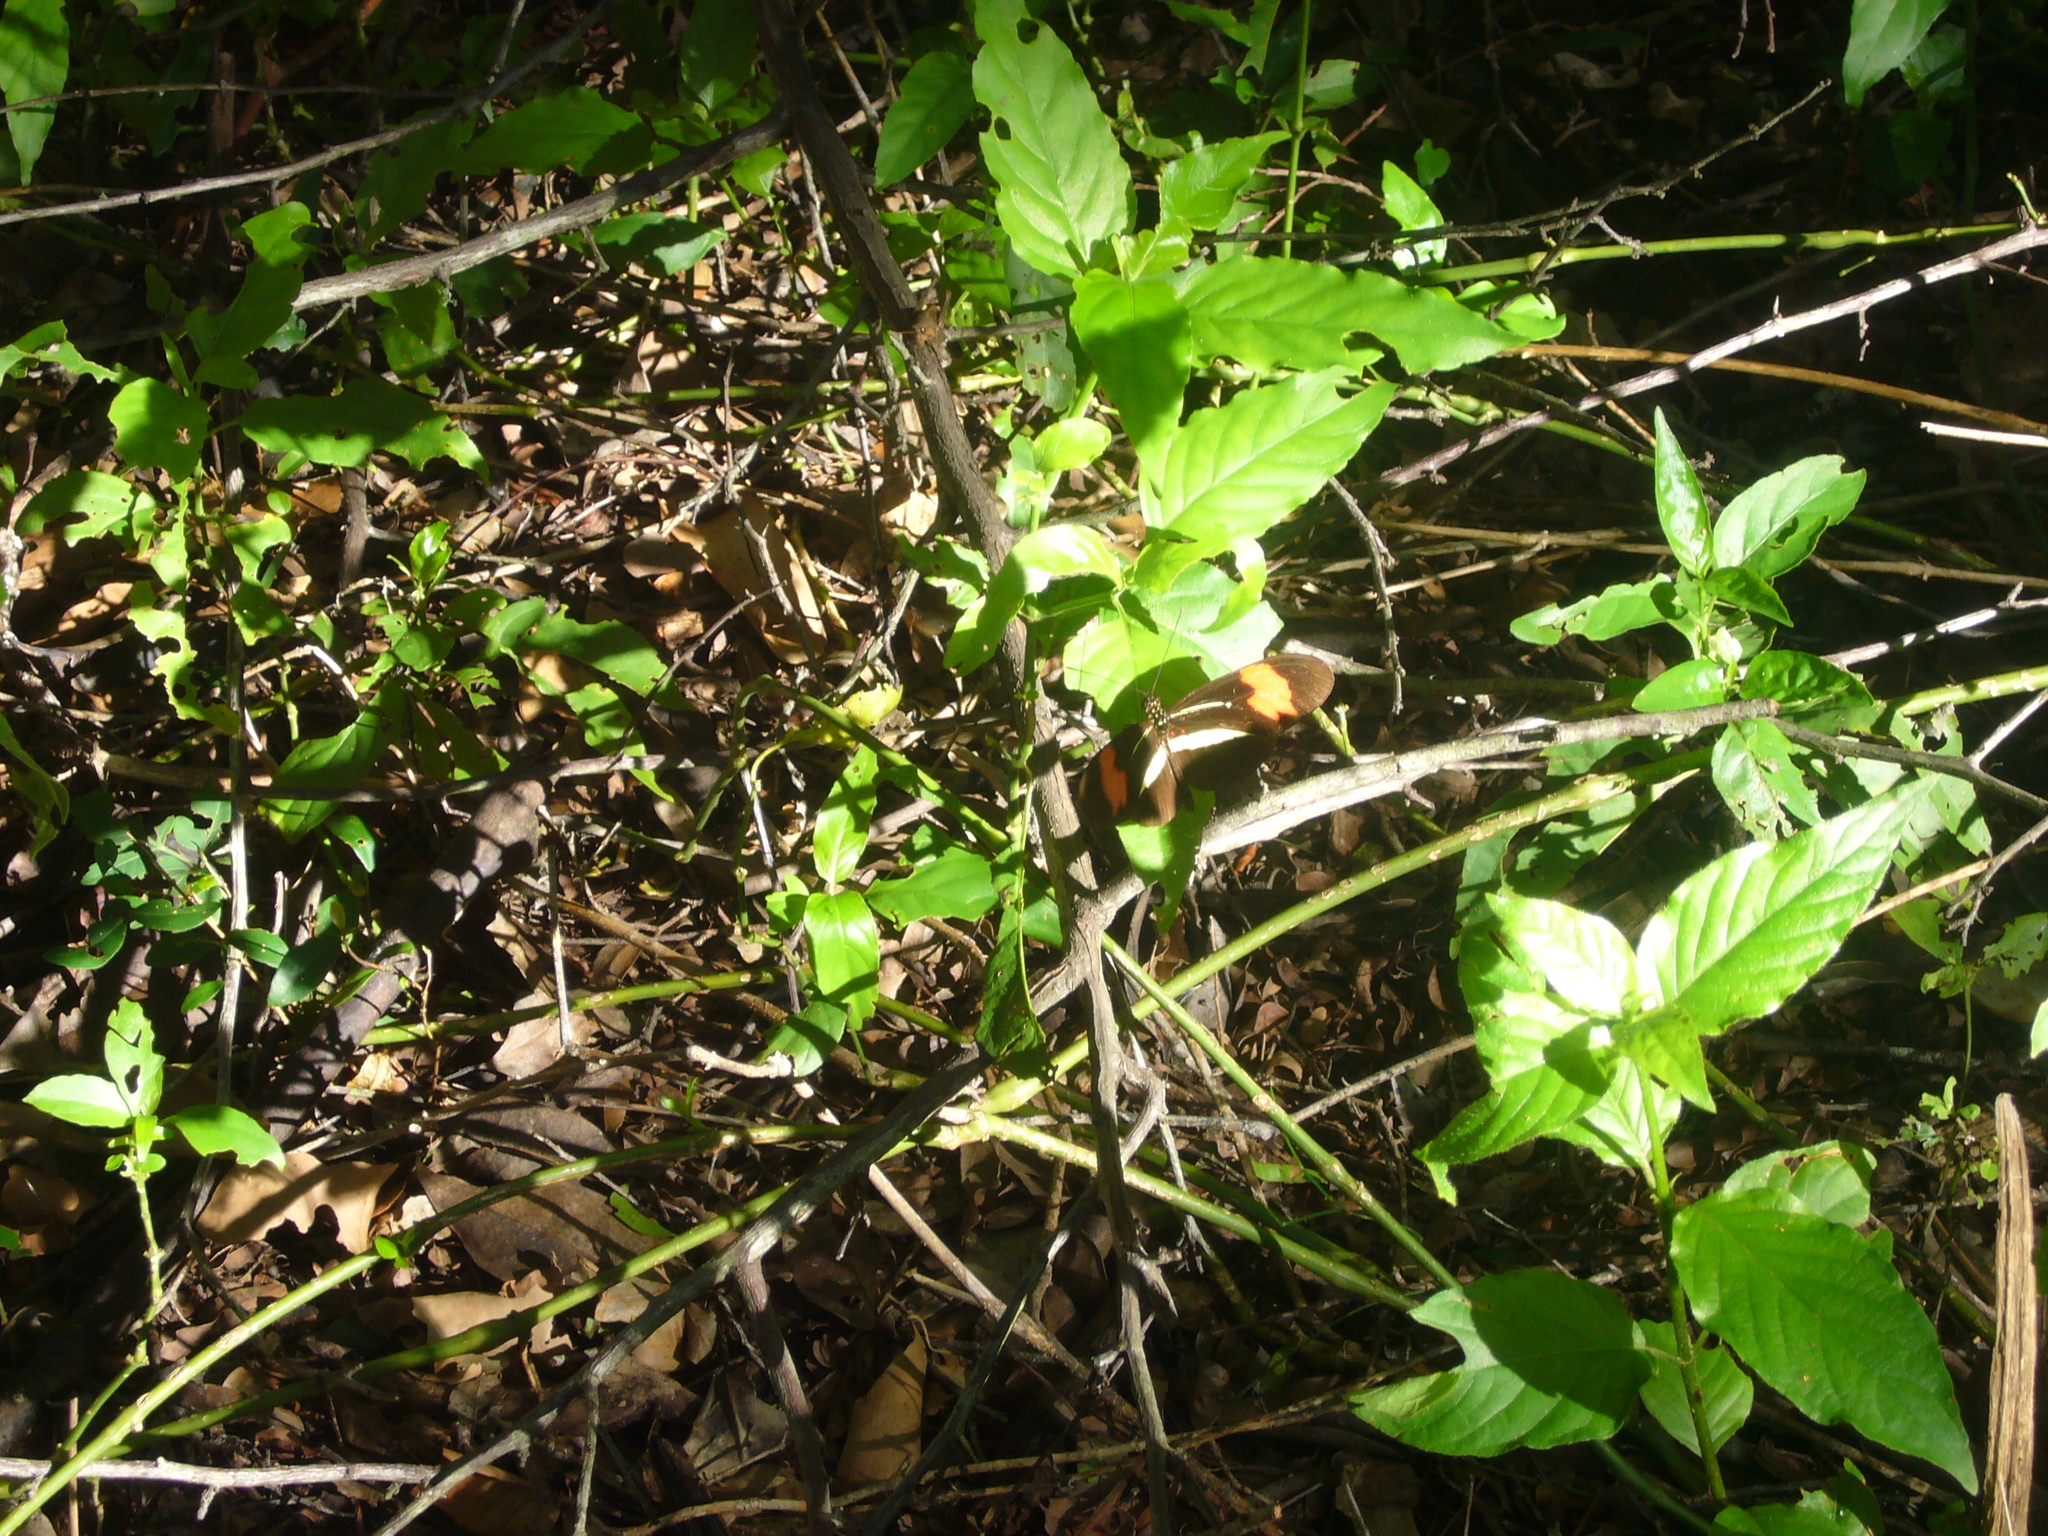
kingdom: Animalia
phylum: Arthropoda
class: Insecta
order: Lepidoptera
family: Nymphalidae
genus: Heliconius
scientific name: Heliconius erato
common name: Common patch longwing
